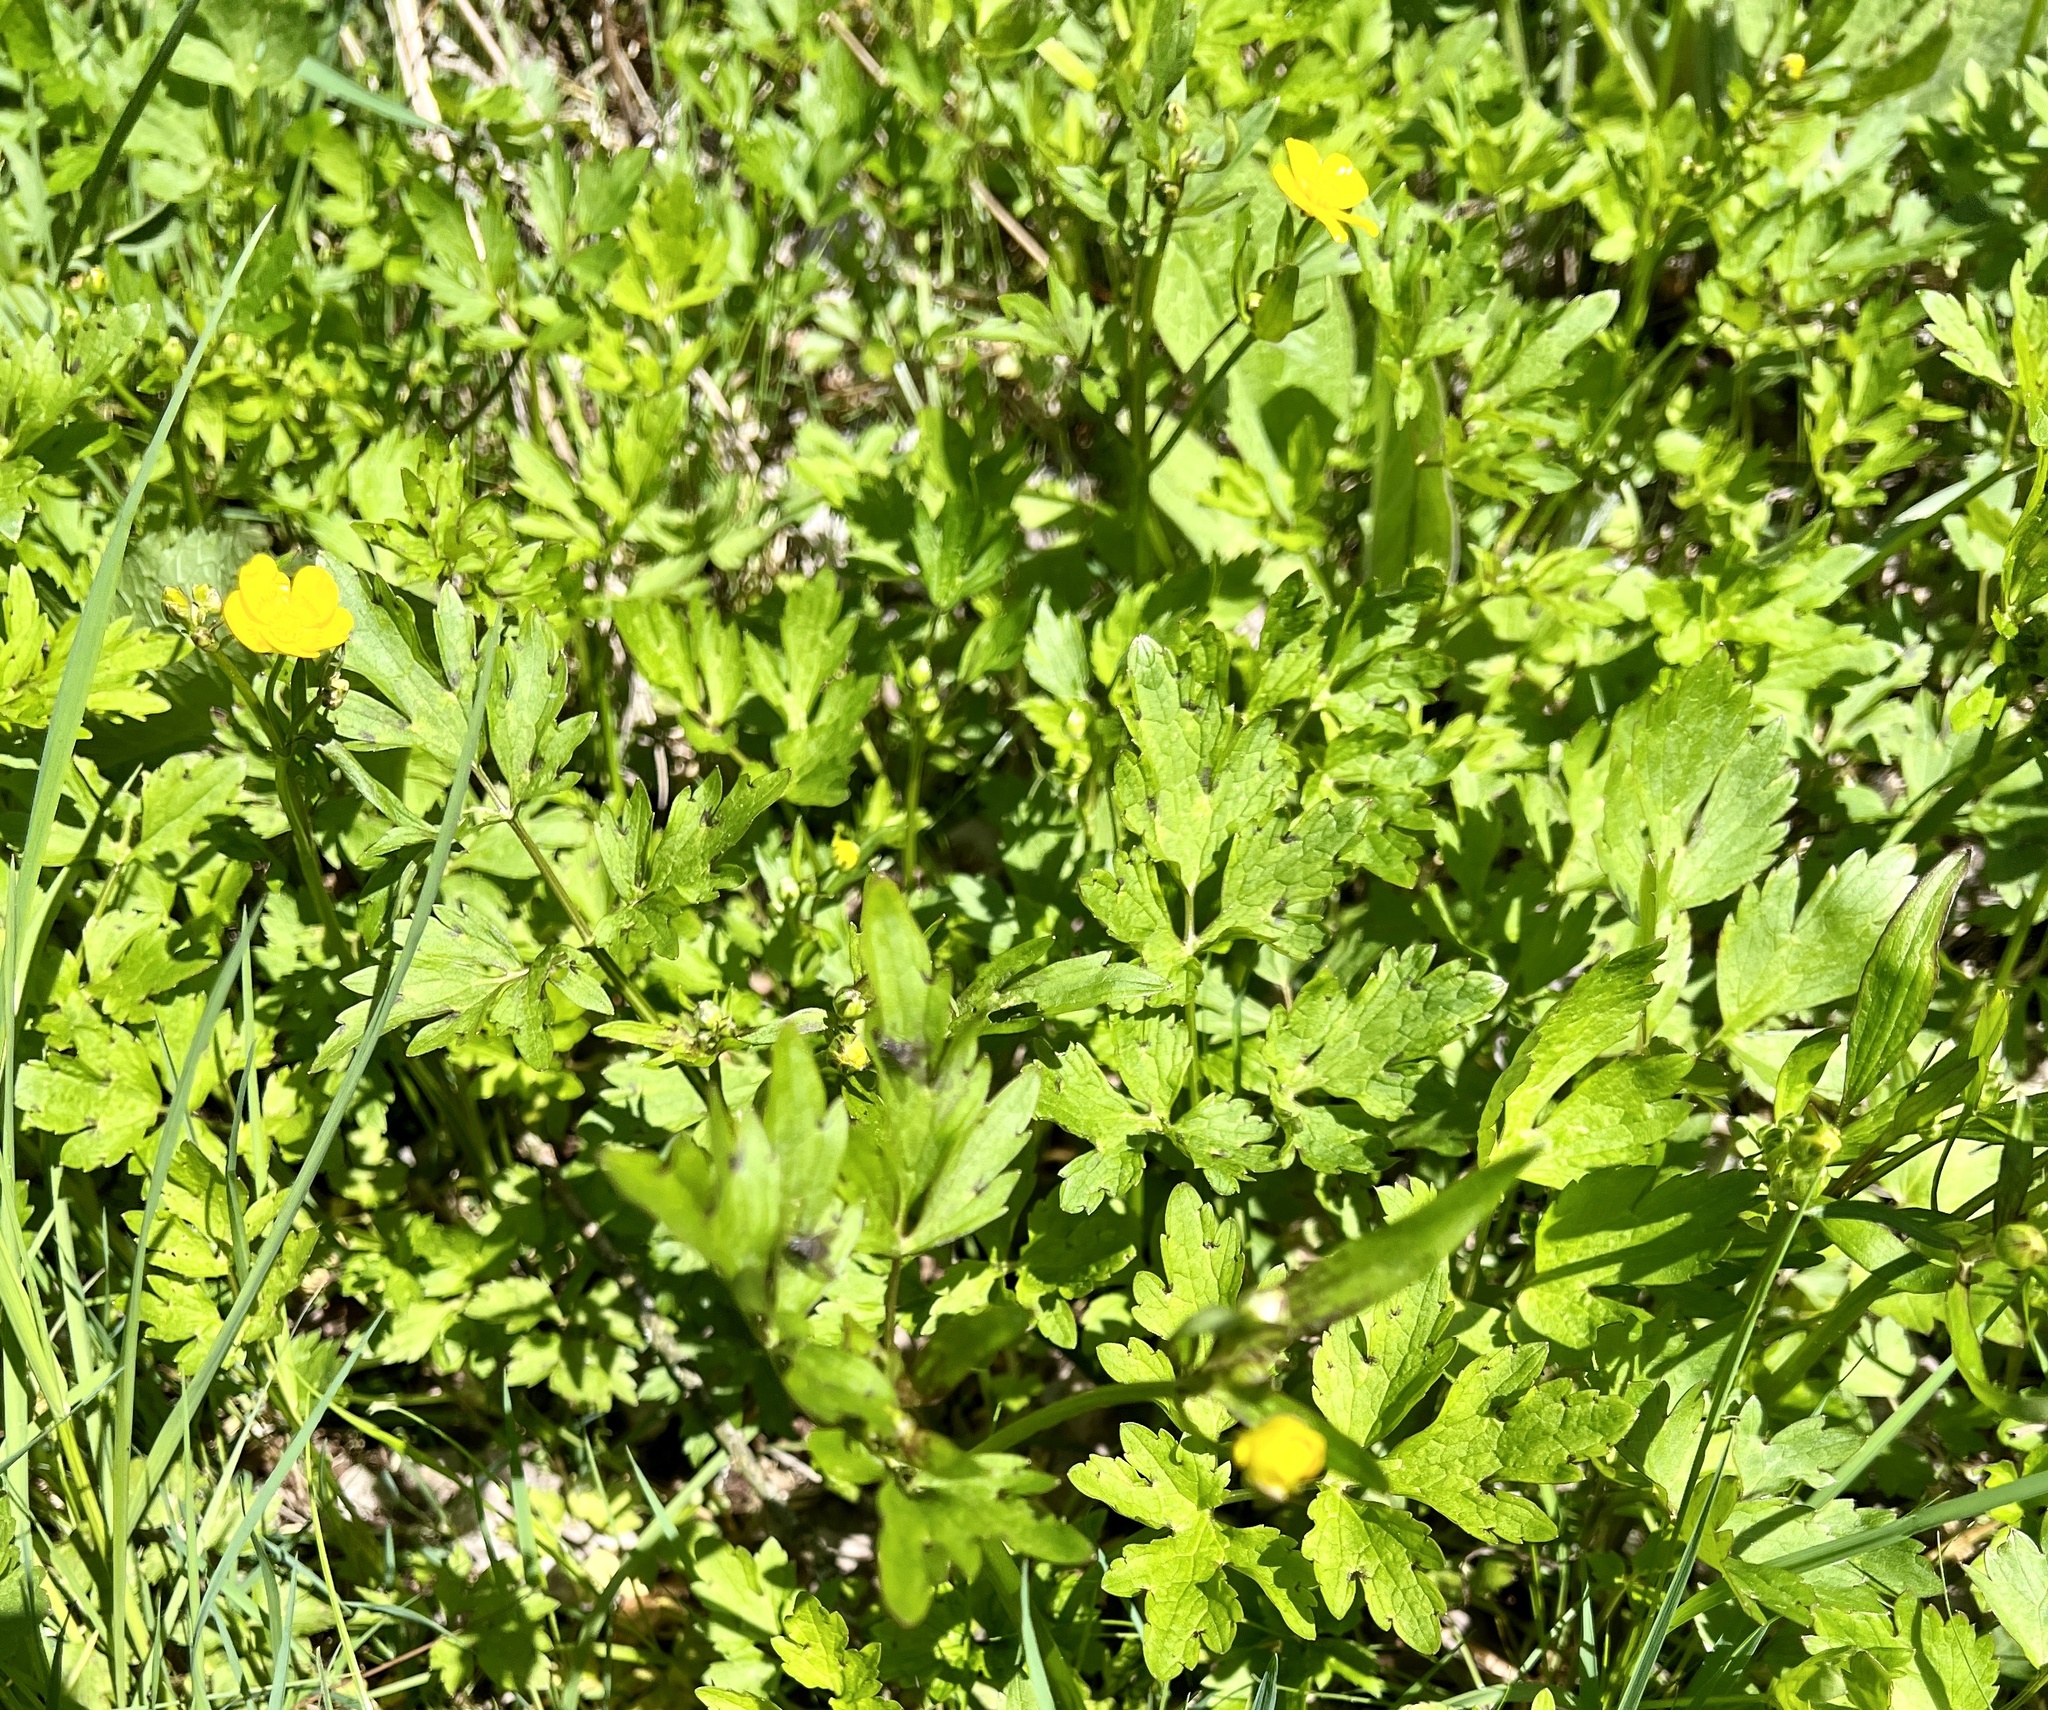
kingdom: Plantae
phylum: Tracheophyta
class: Magnoliopsida
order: Ranunculales
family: Ranunculaceae
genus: Ranunculus
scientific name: Ranunculus repens
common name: Creeping buttercup
